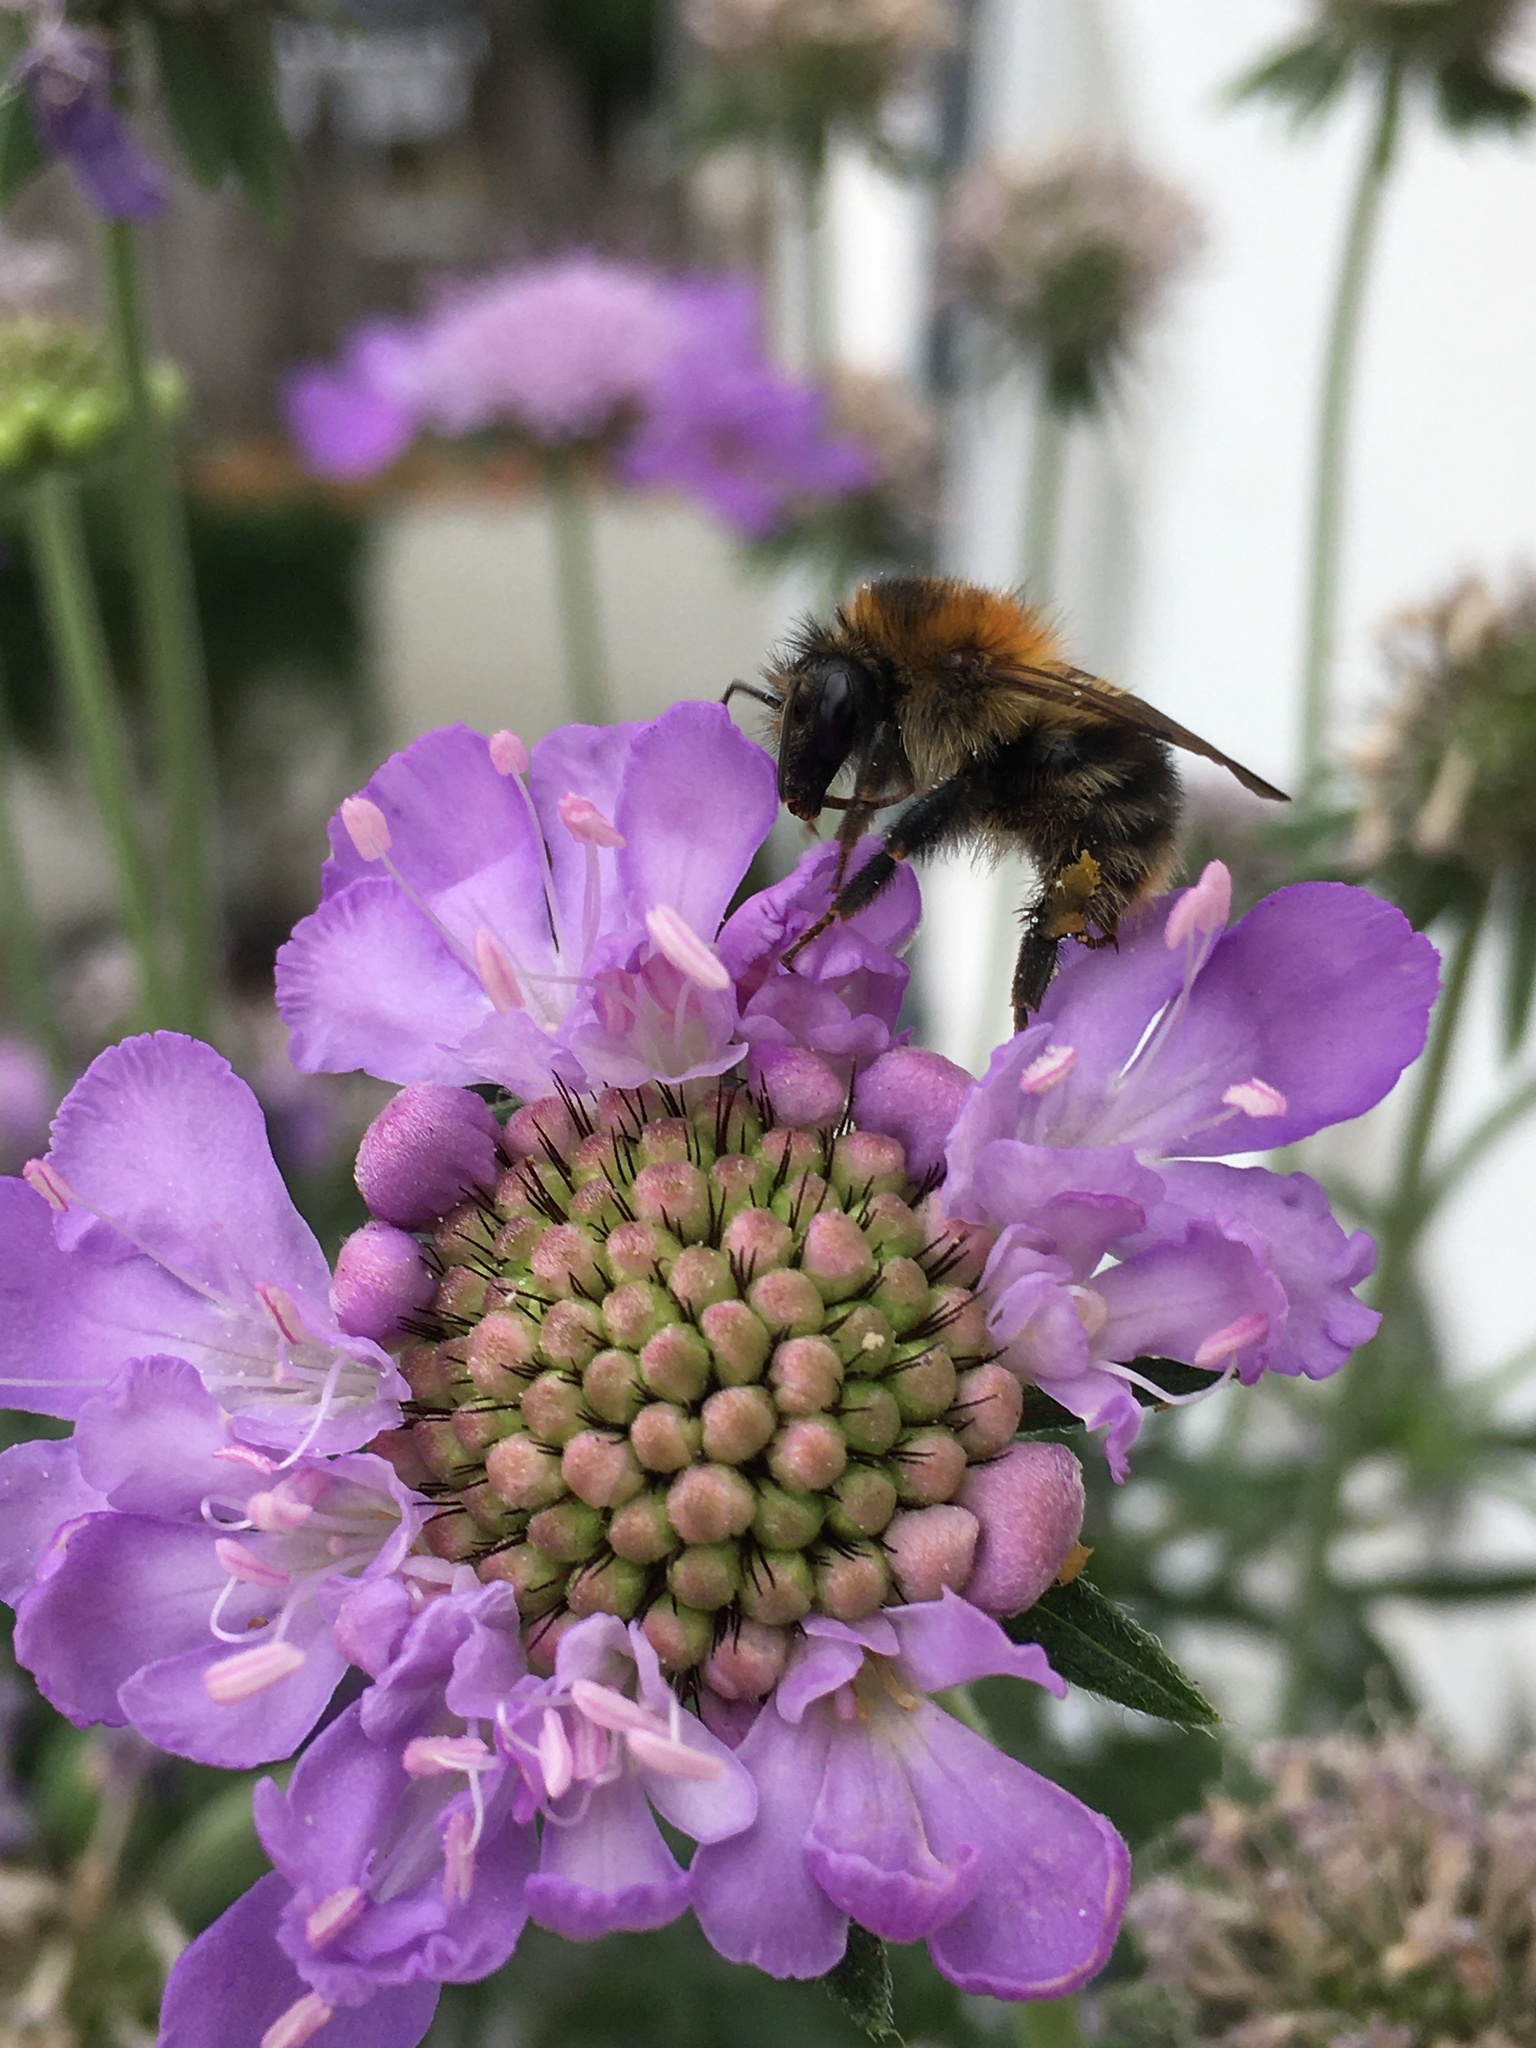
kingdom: Animalia
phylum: Arthropoda
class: Insecta
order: Hymenoptera
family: Apidae
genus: Bombus
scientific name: Bombus pascuorum
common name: Common carder bee
